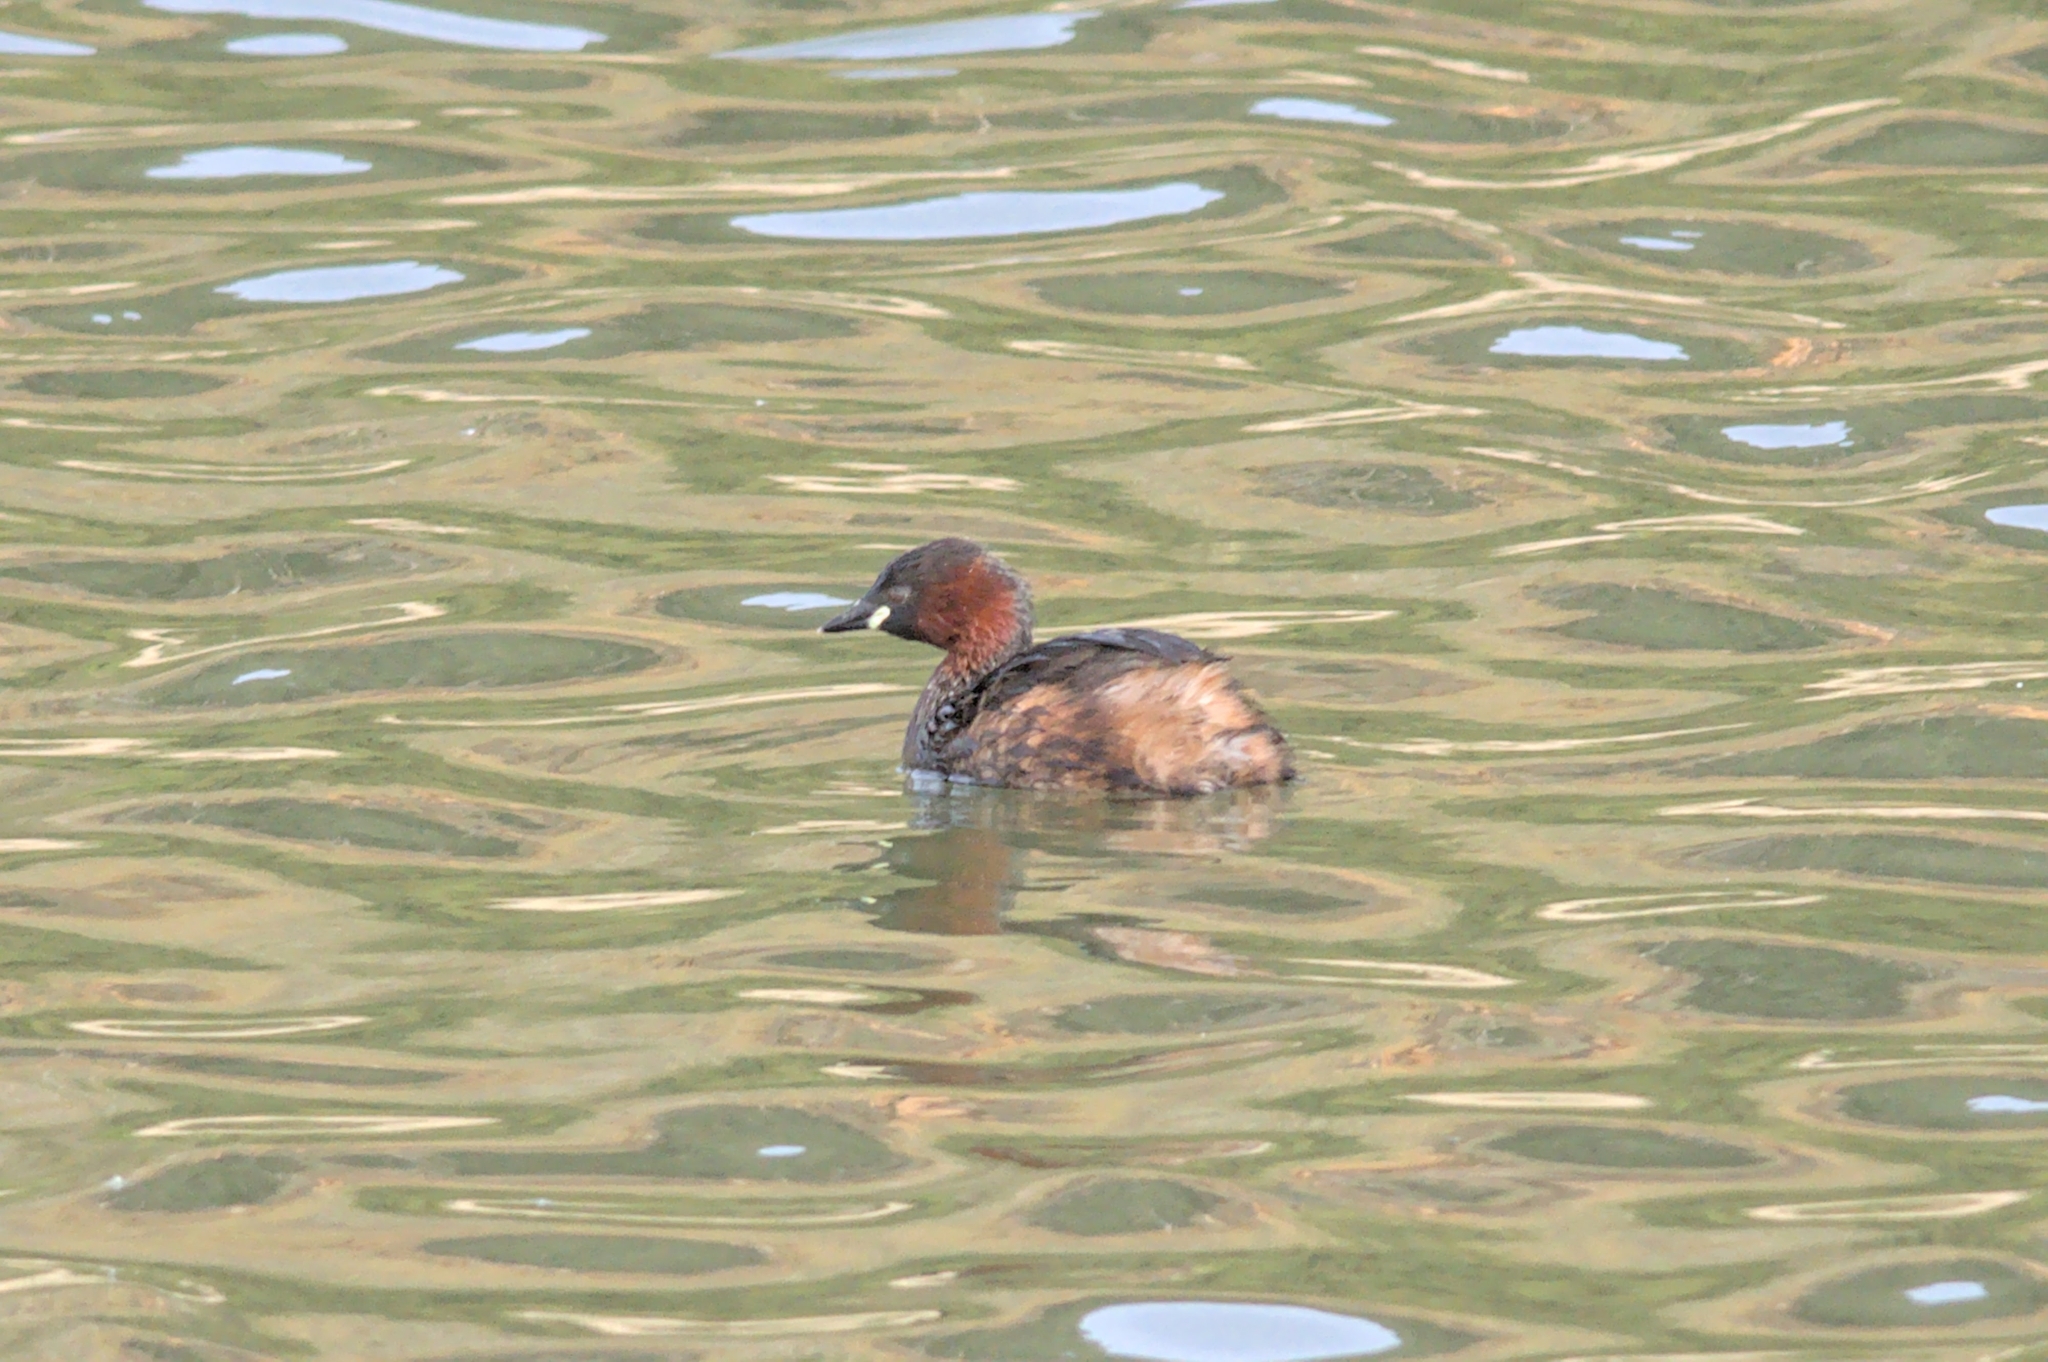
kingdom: Animalia
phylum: Chordata
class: Aves
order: Podicipediformes
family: Podicipedidae
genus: Tachybaptus
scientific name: Tachybaptus ruficollis
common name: Little grebe
